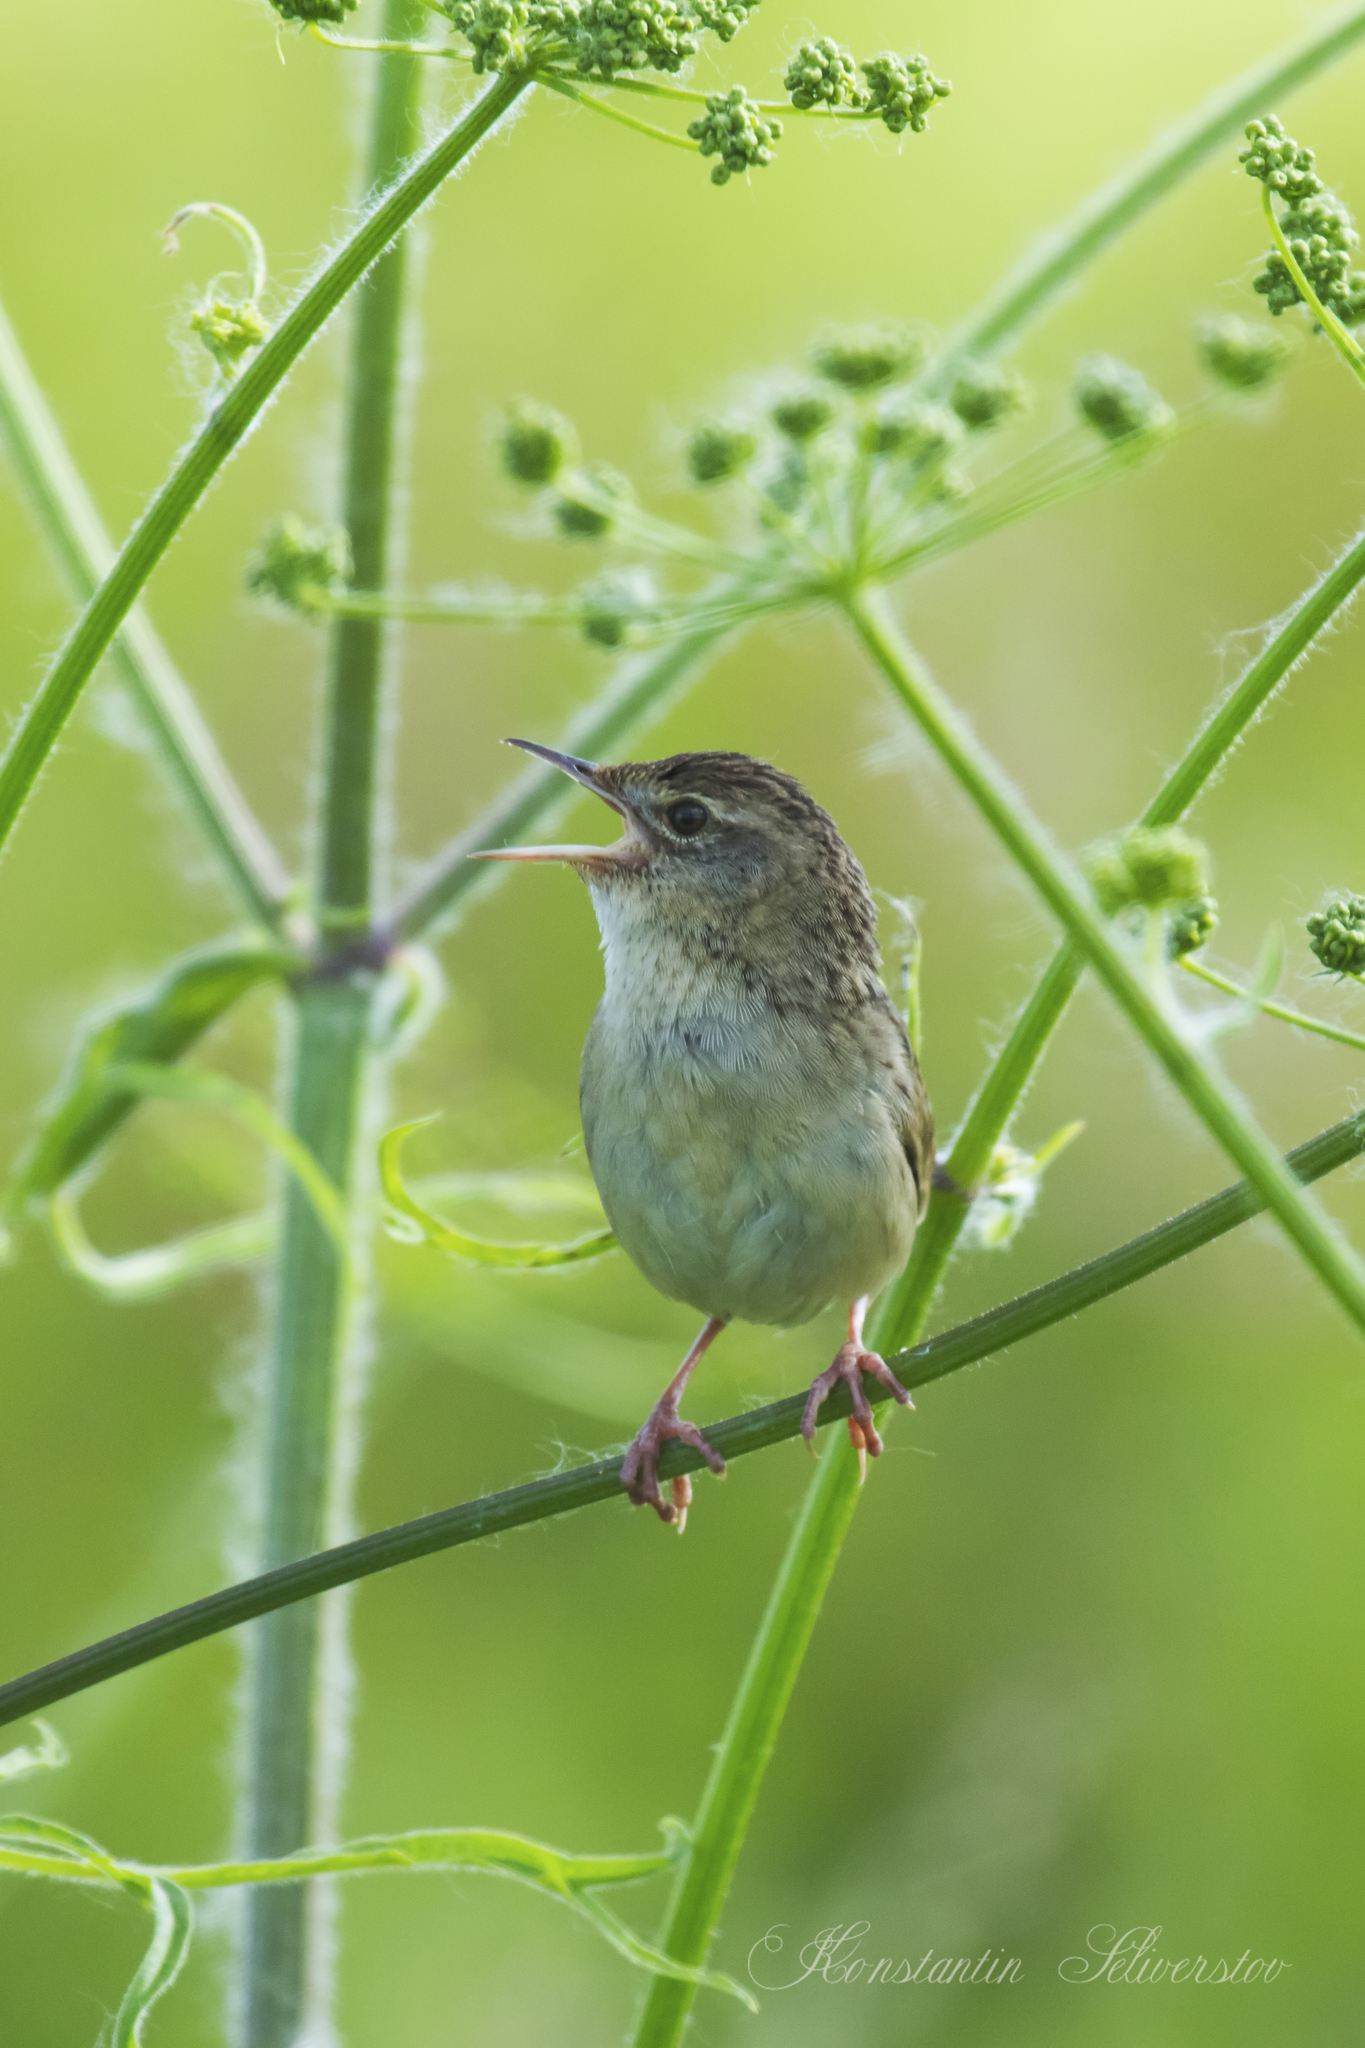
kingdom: Animalia
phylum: Chordata
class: Aves
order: Passeriformes
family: Locustellidae
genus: Locustella
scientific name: Locustella naevia
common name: Common grasshopper warbler
